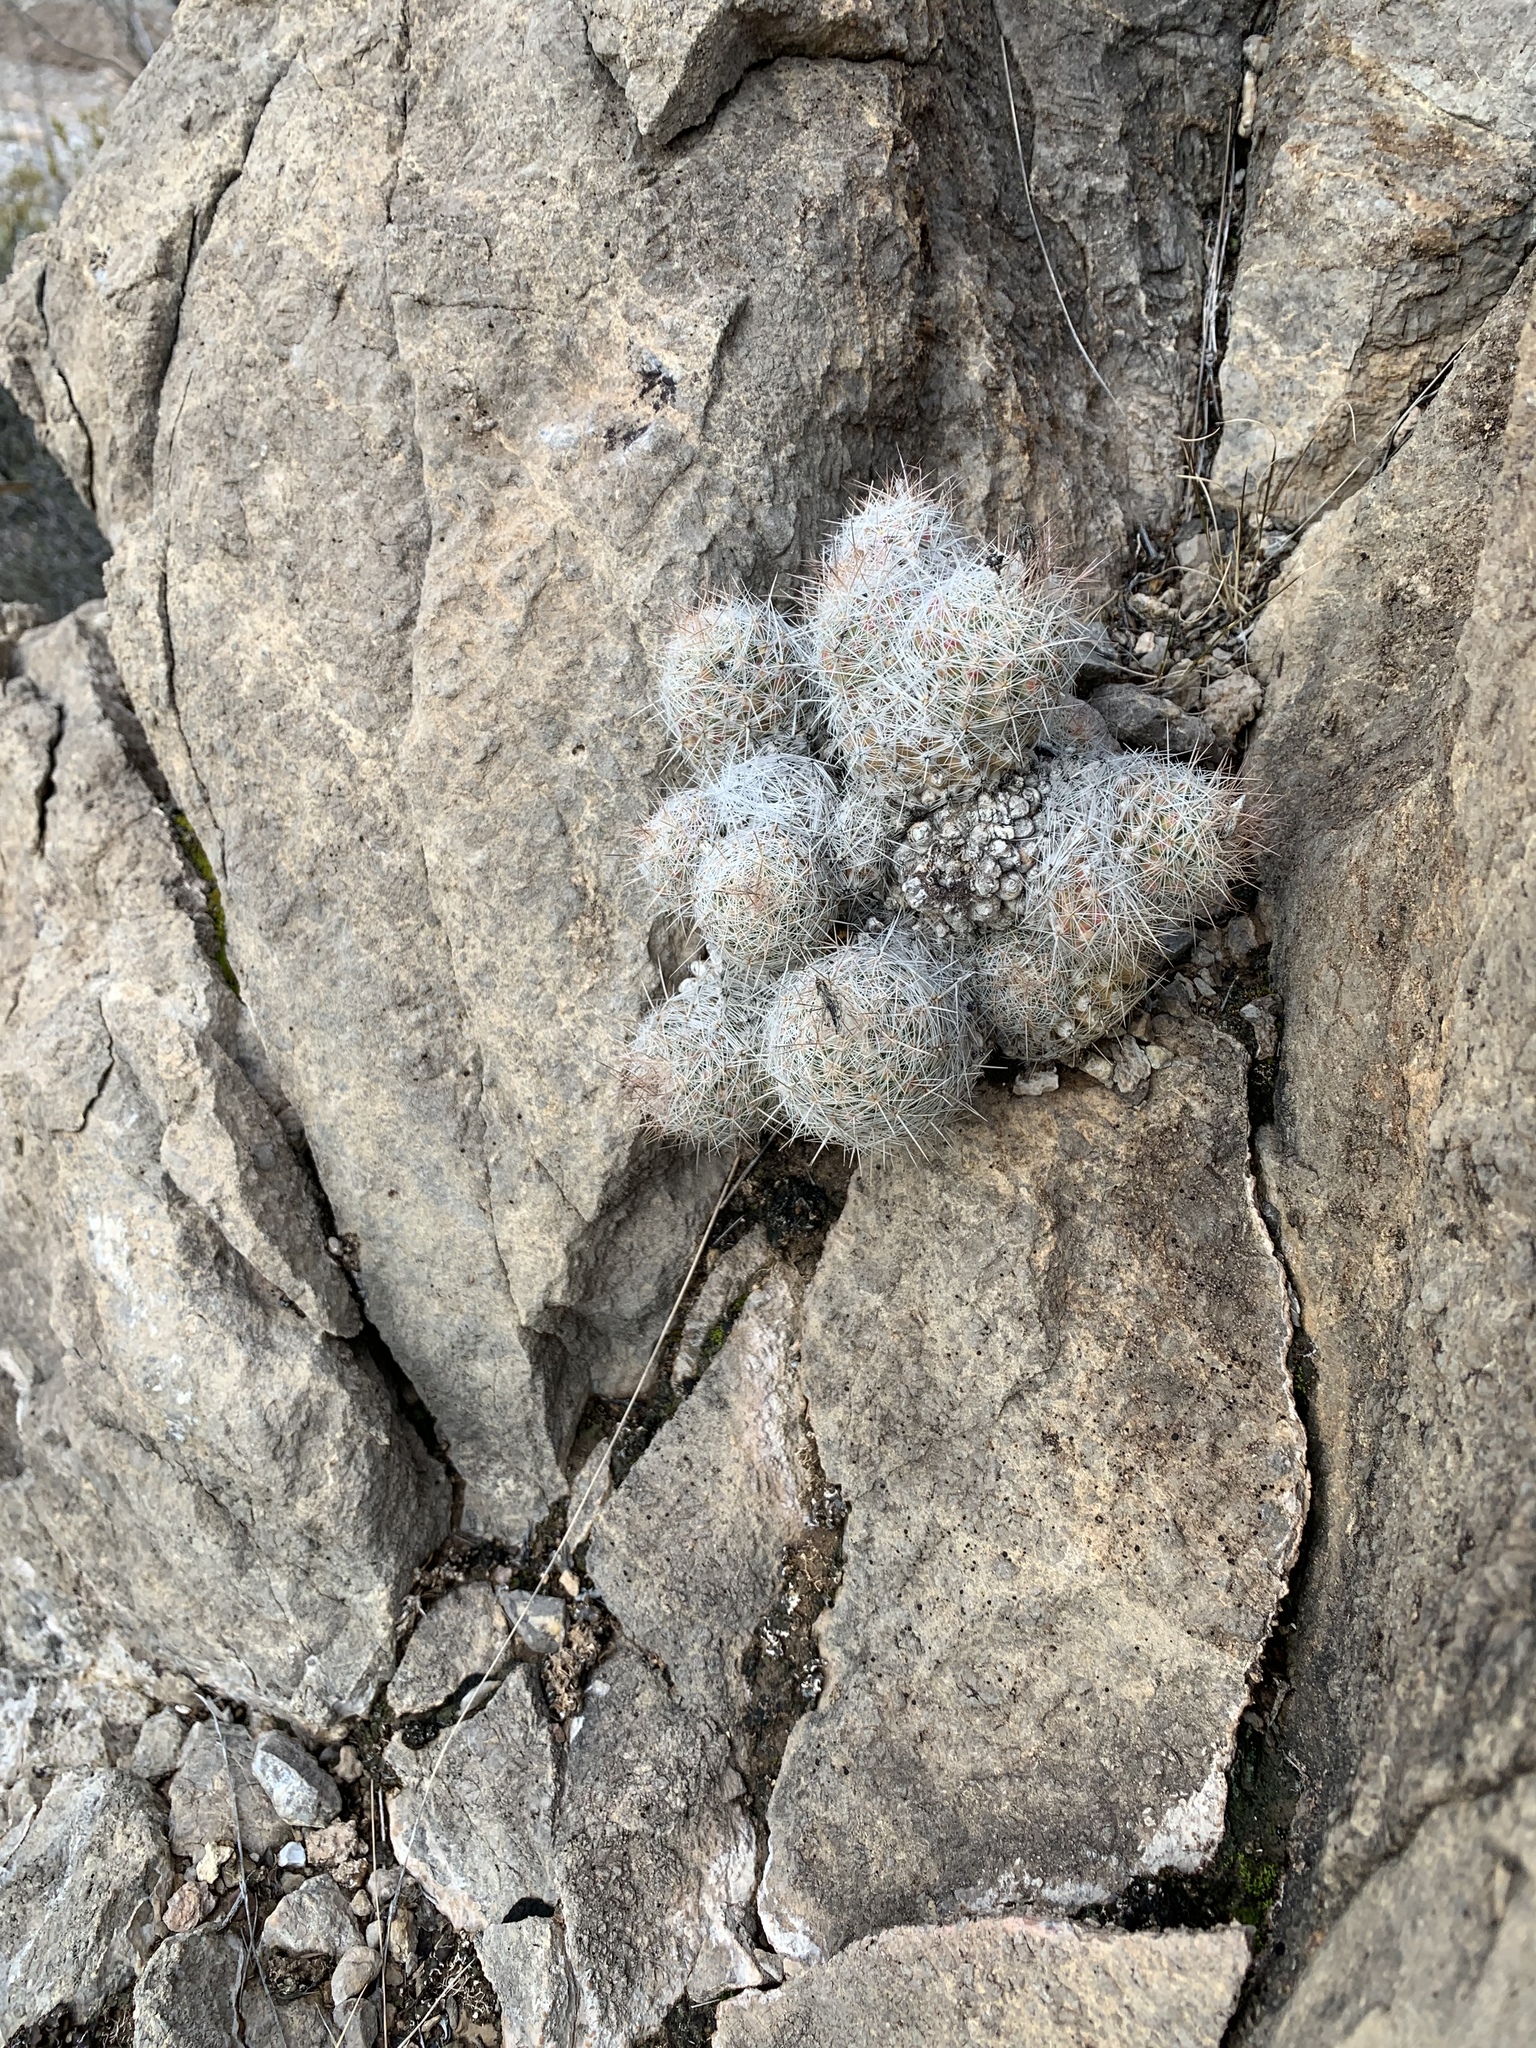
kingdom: Plantae
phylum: Tracheophyta
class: Magnoliopsida
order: Caryophyllales
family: Cactaceae
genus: Pelecyphora
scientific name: Pelecyphora tuberculosa
